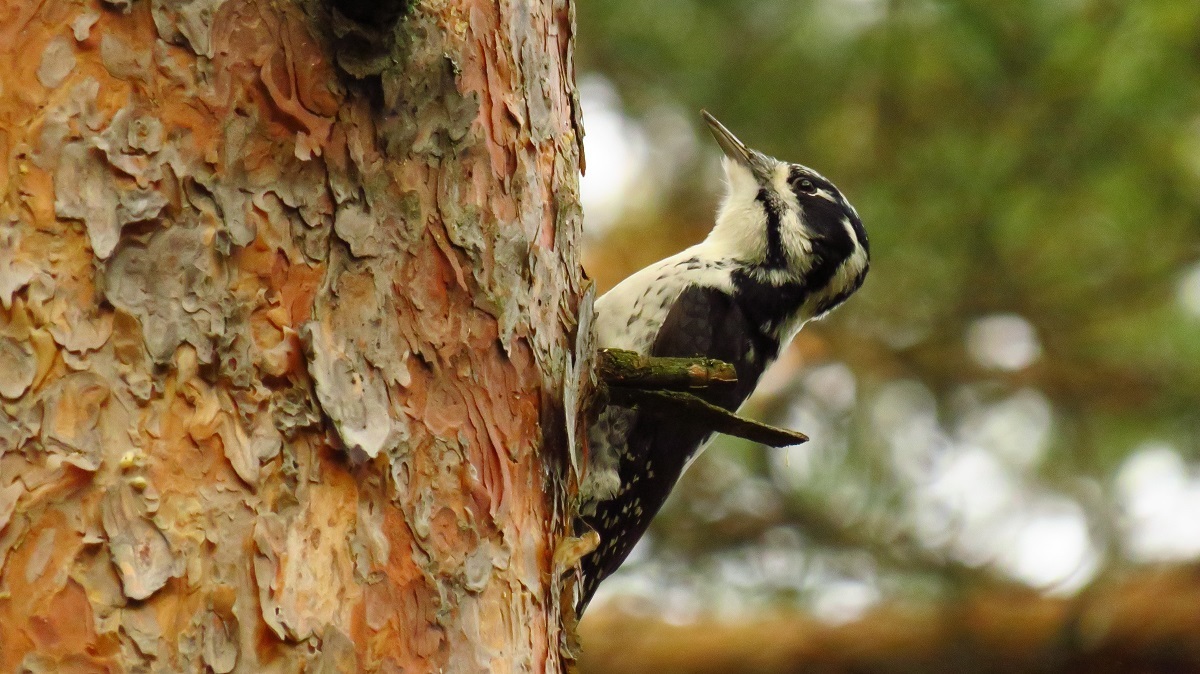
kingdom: Animalia
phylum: Chordata
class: Aves
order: Piciformes
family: Picidae
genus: Picoides
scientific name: Picoides tridactylus
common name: Eurasian three-toed woodpecker
